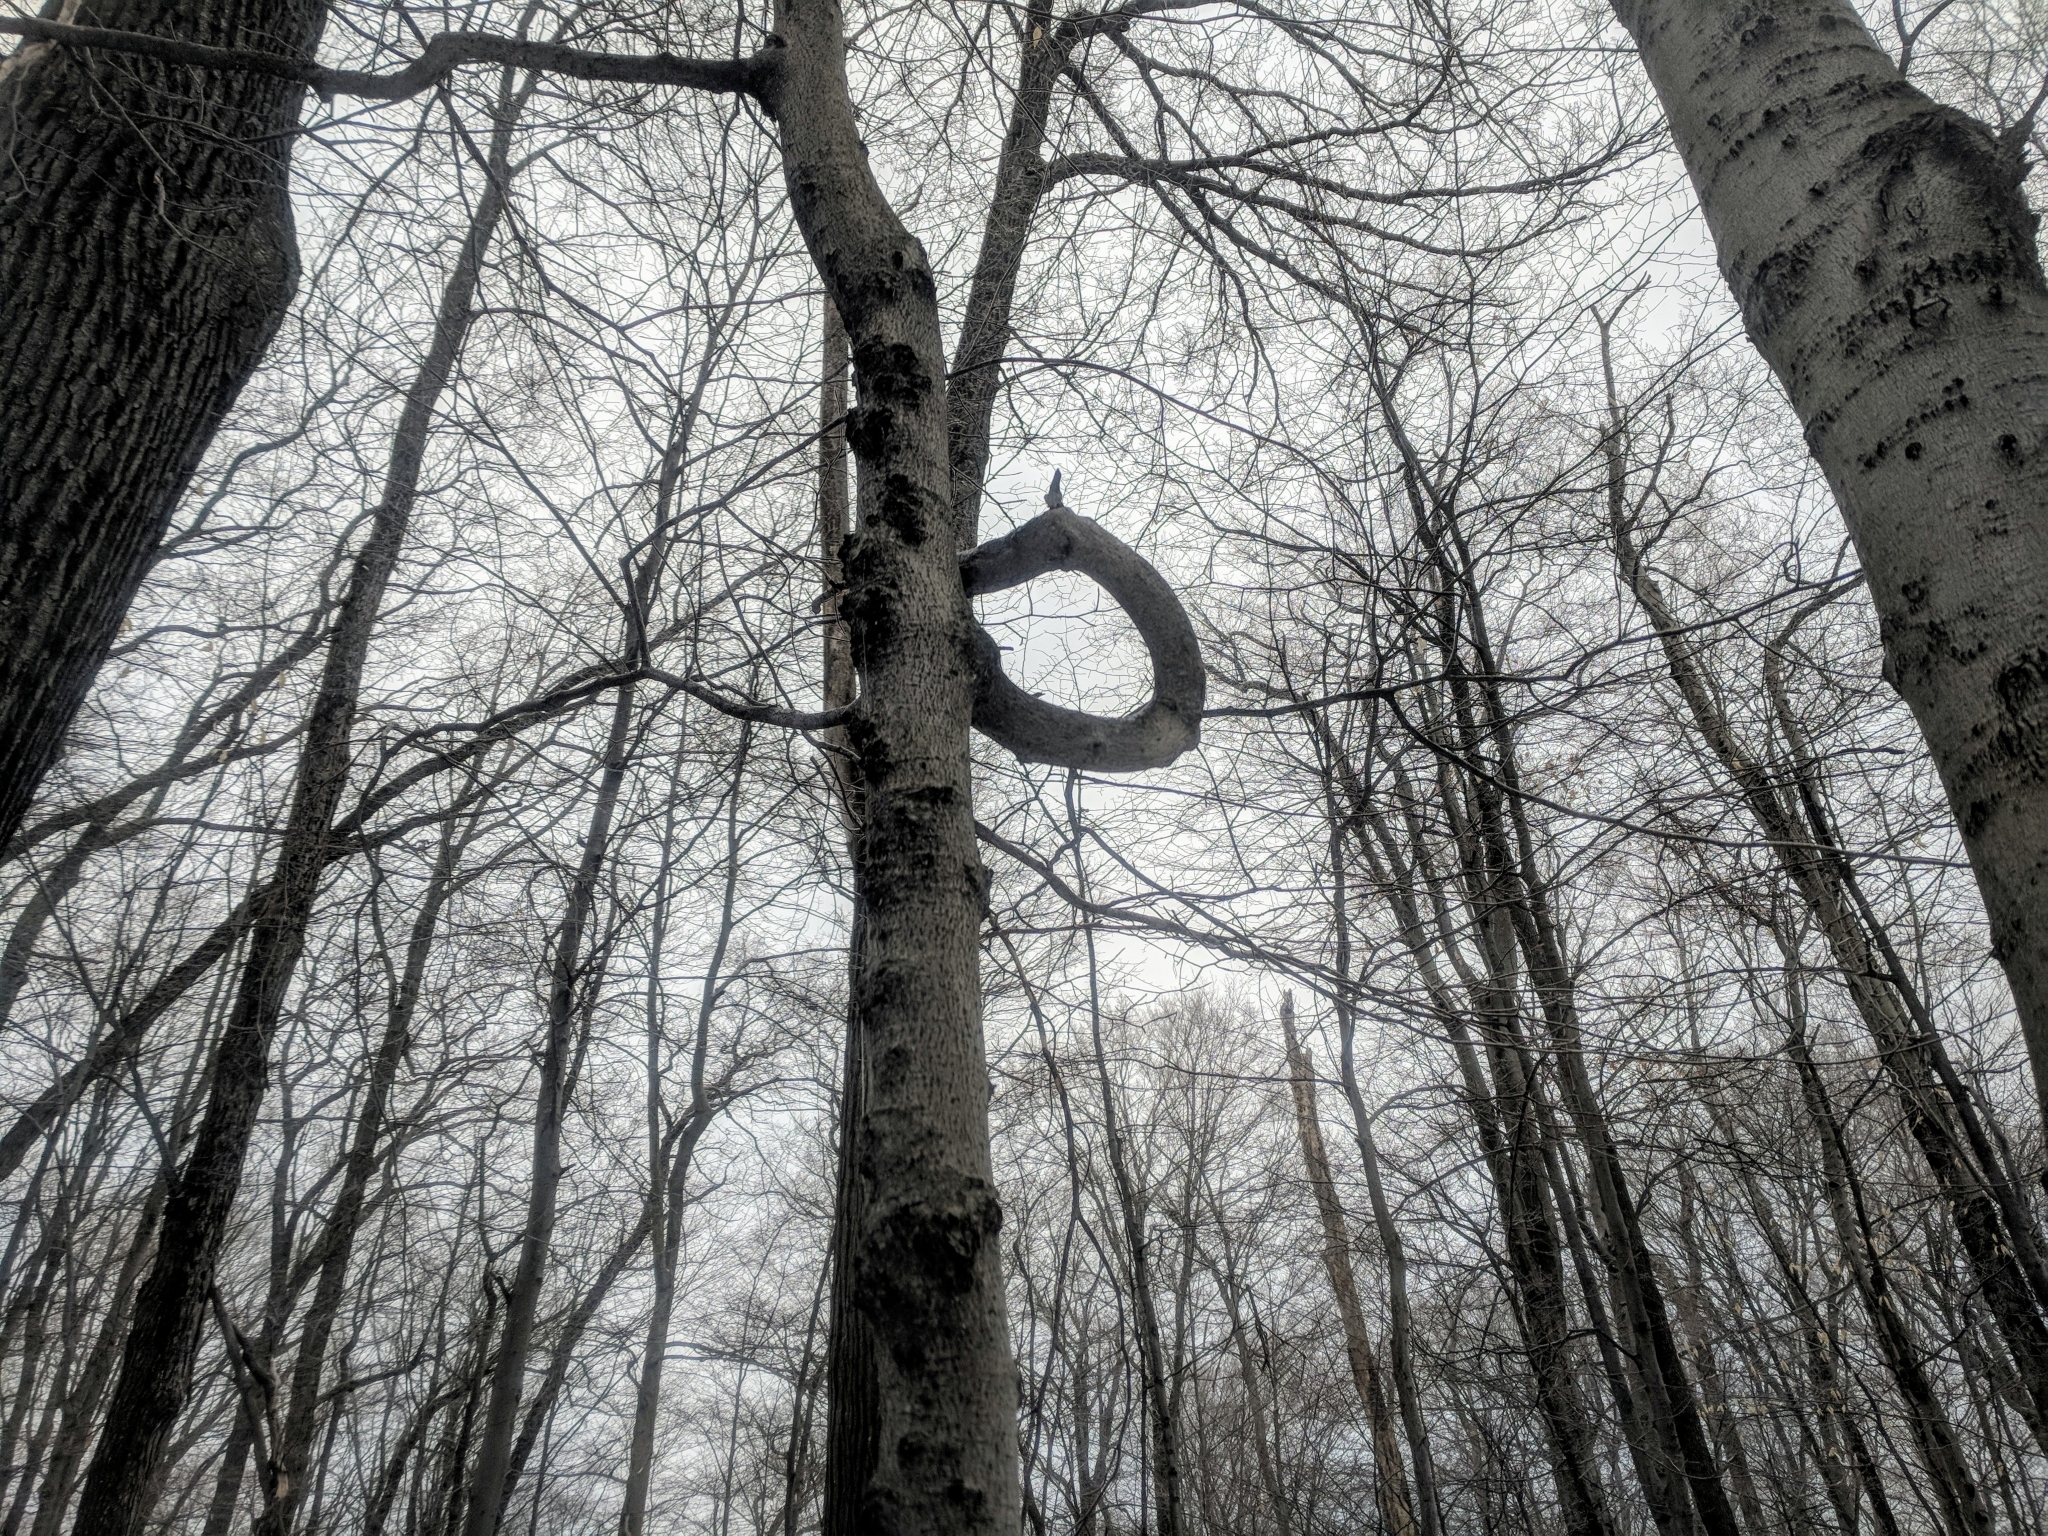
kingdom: Plantae
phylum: Tracheophyta
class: Magnoliopsida
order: Malvales
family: Malvaceae
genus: Tilia
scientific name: Tilia americana
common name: Basswood
